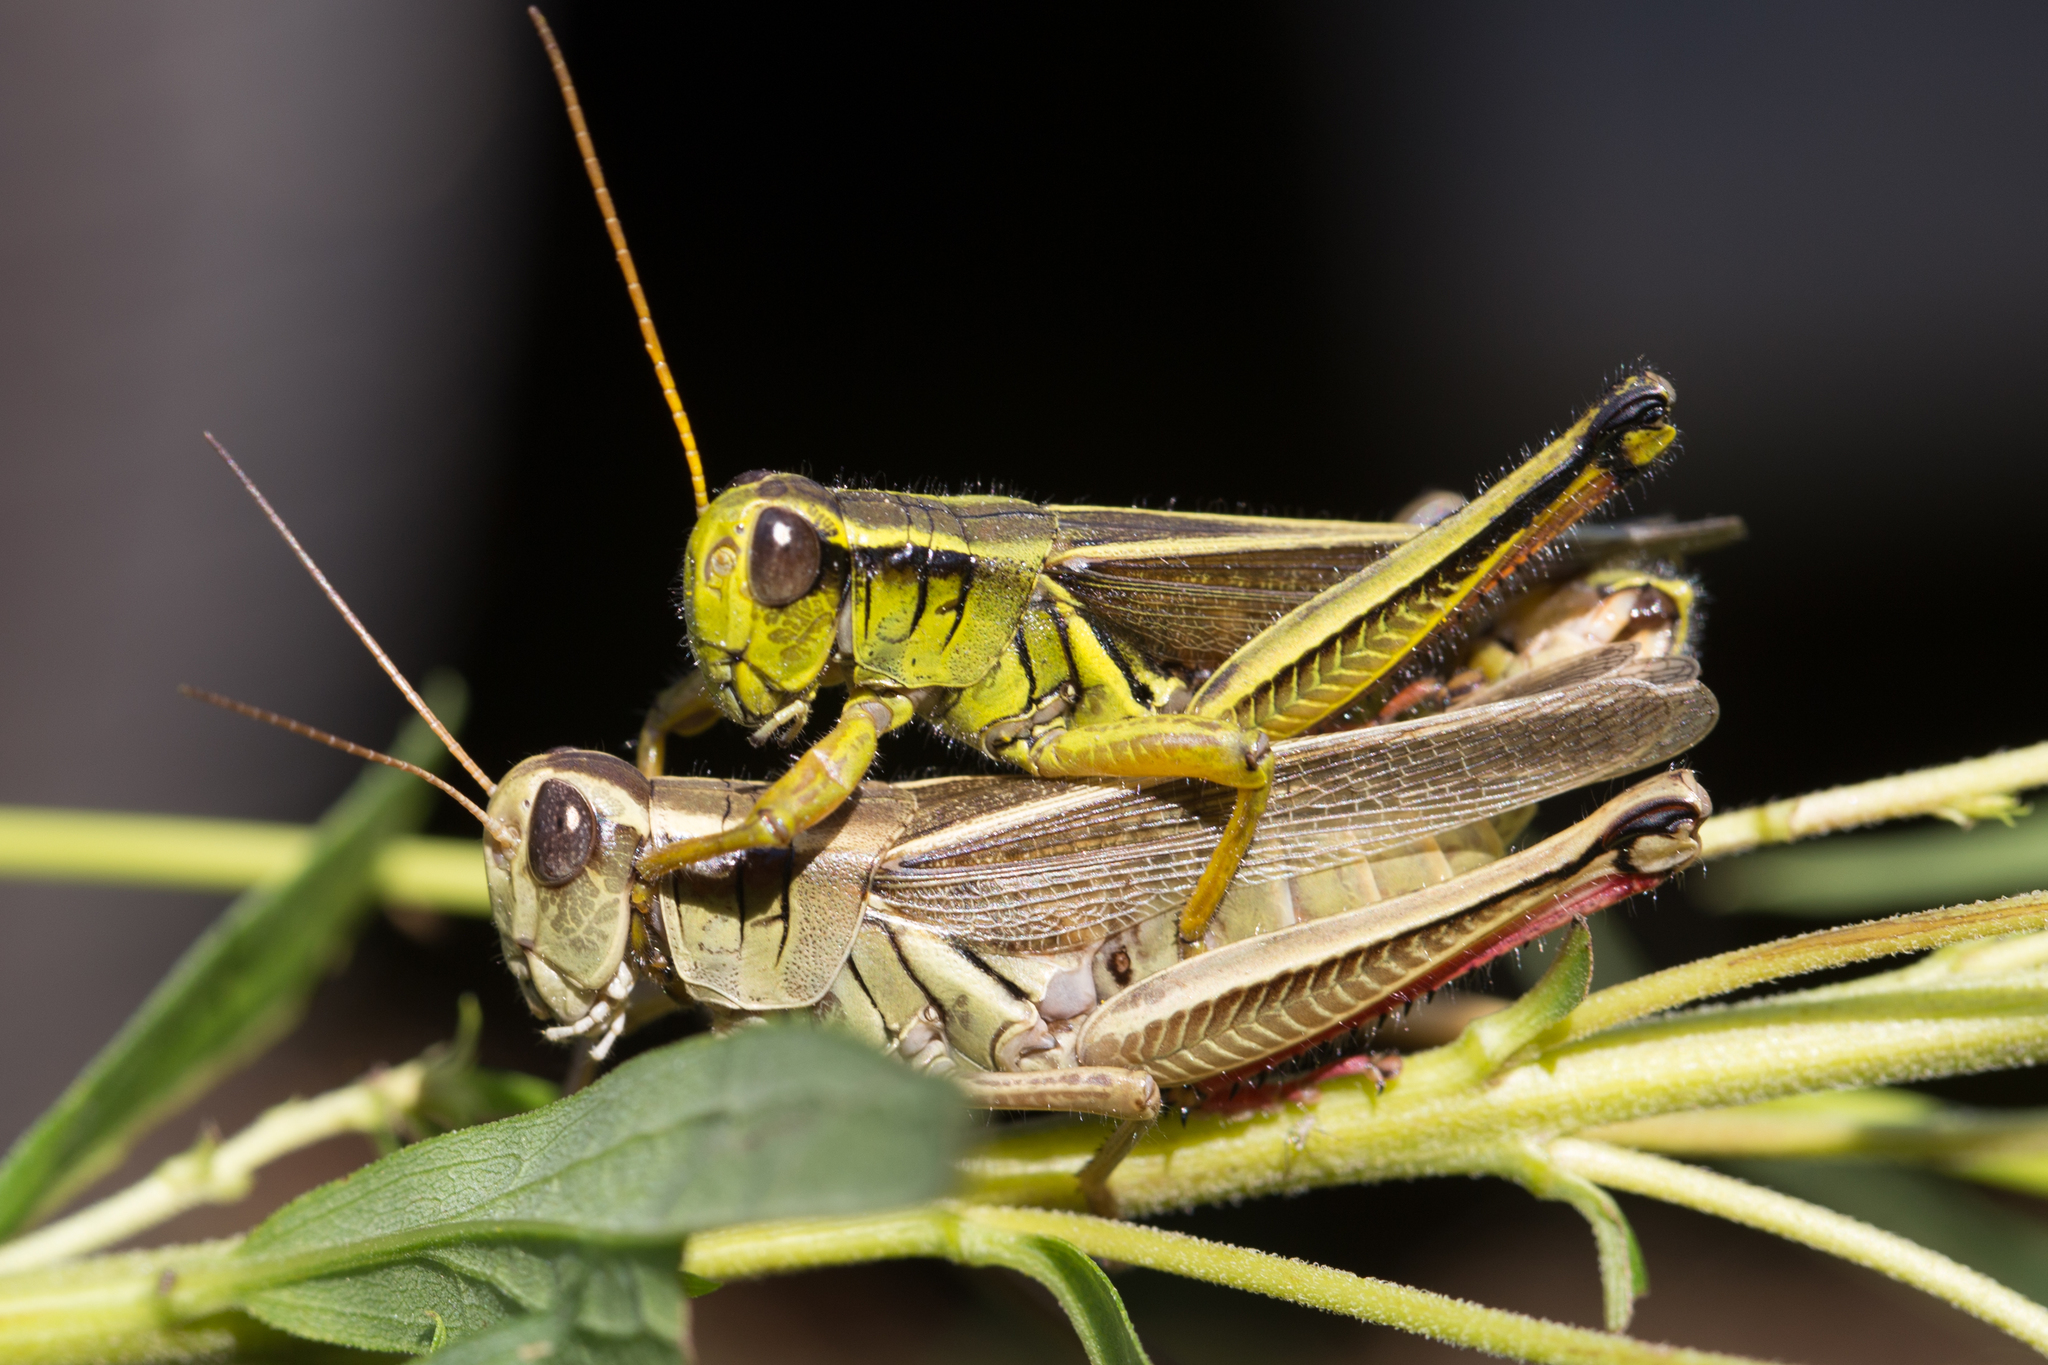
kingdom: Animalia
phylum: Arthropoda
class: Insecta
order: Orthoptera
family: Acrididae
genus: Melanoplus
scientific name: Melanoplus bivittatus
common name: Two-striped grasshopper
